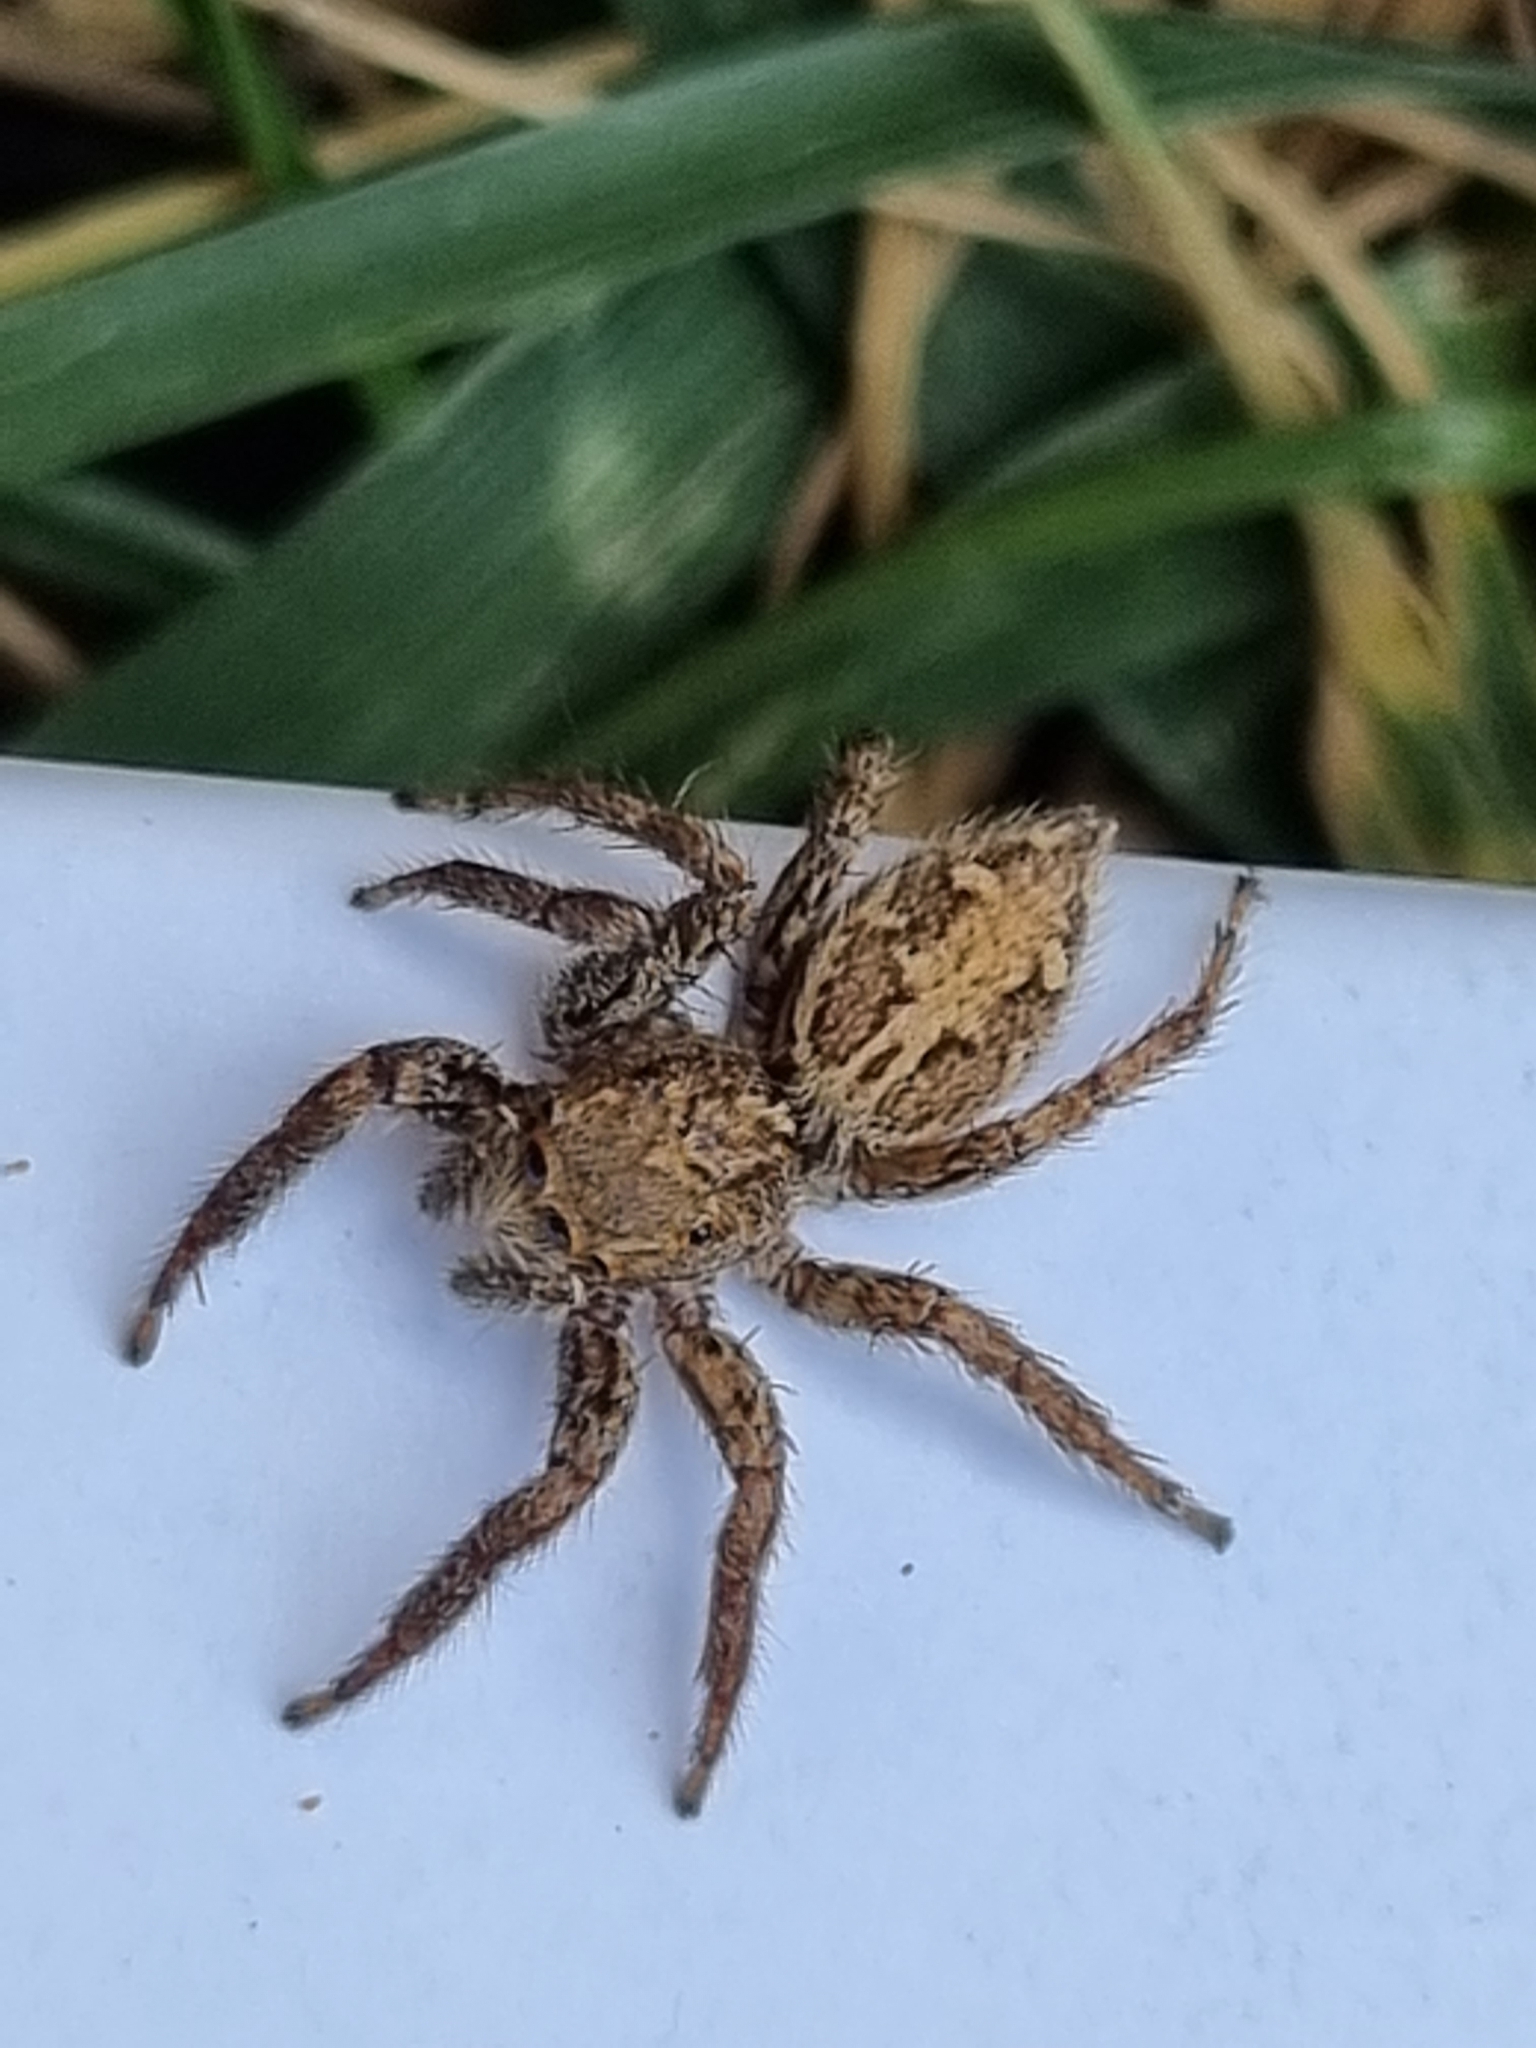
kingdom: Animalia
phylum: Arthropoda
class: Arachnida
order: Araneae
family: Salticidae
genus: Plexippus
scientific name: Plexippus paykulli
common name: Pantropical jumper
